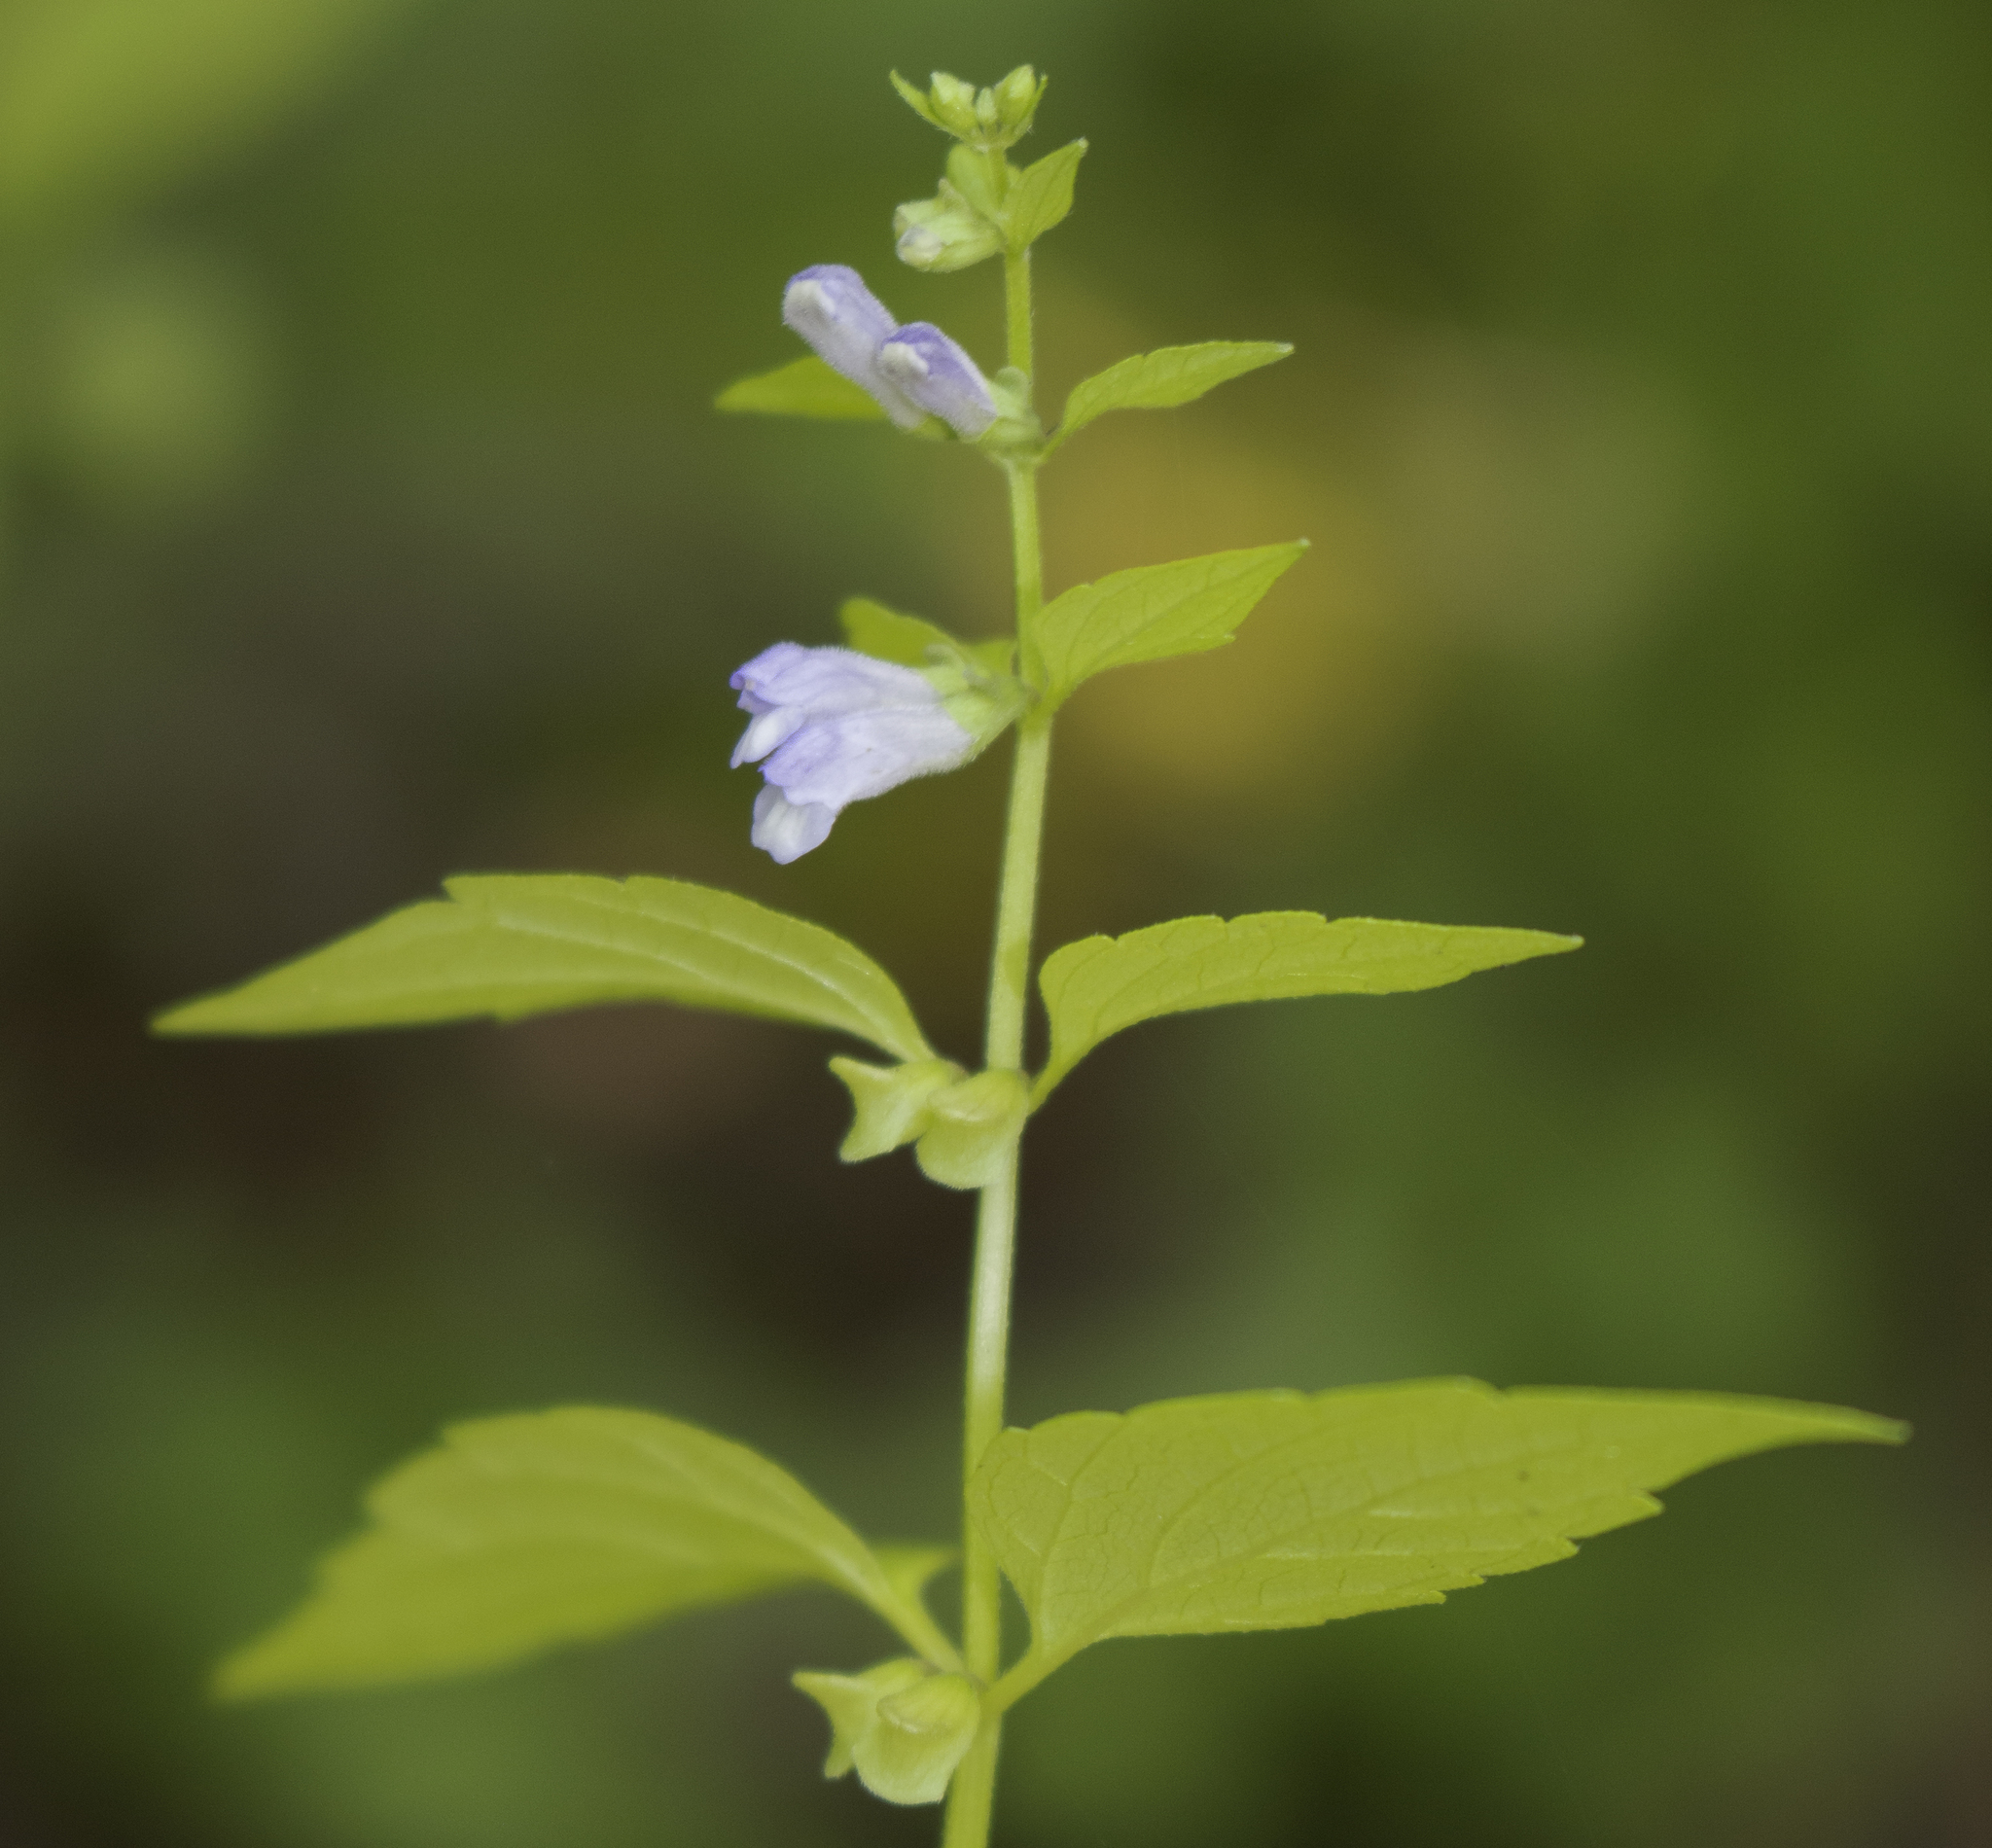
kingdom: Plantae
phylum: Tracheophyta
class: Magnoliopsida
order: Lamiales
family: Lamiaceae
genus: Scutellaria
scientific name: Scutellaria lateriflora
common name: Blue skullcap
